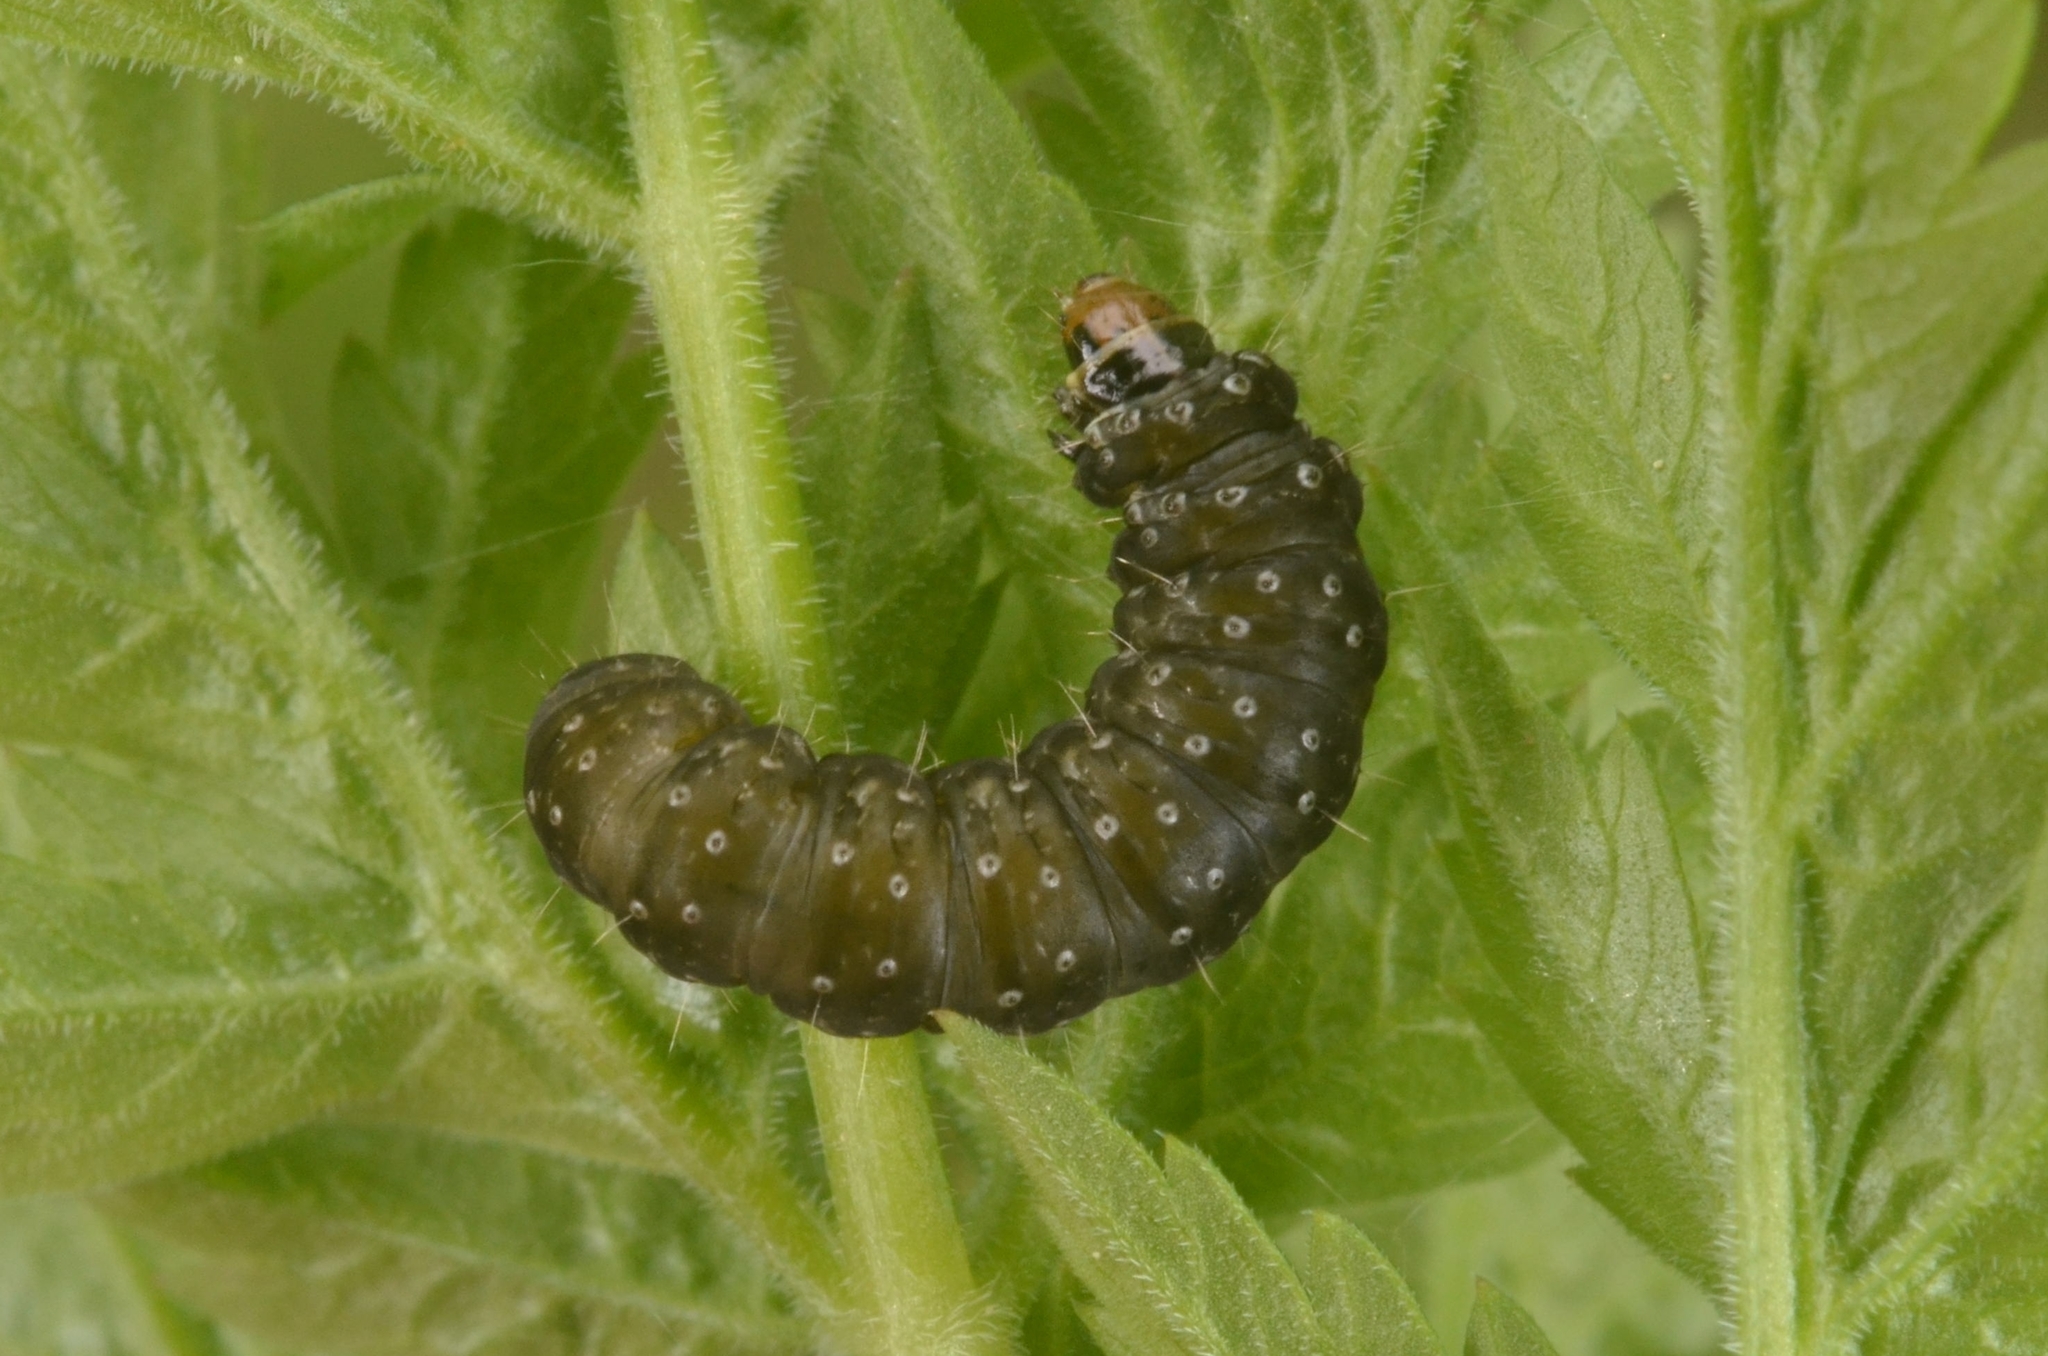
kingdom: Animalia
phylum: Arthropoda
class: Insecta
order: Lepidoptera
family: Tortricidae
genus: Aphelia
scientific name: Aphelia Zelotherses paleana
